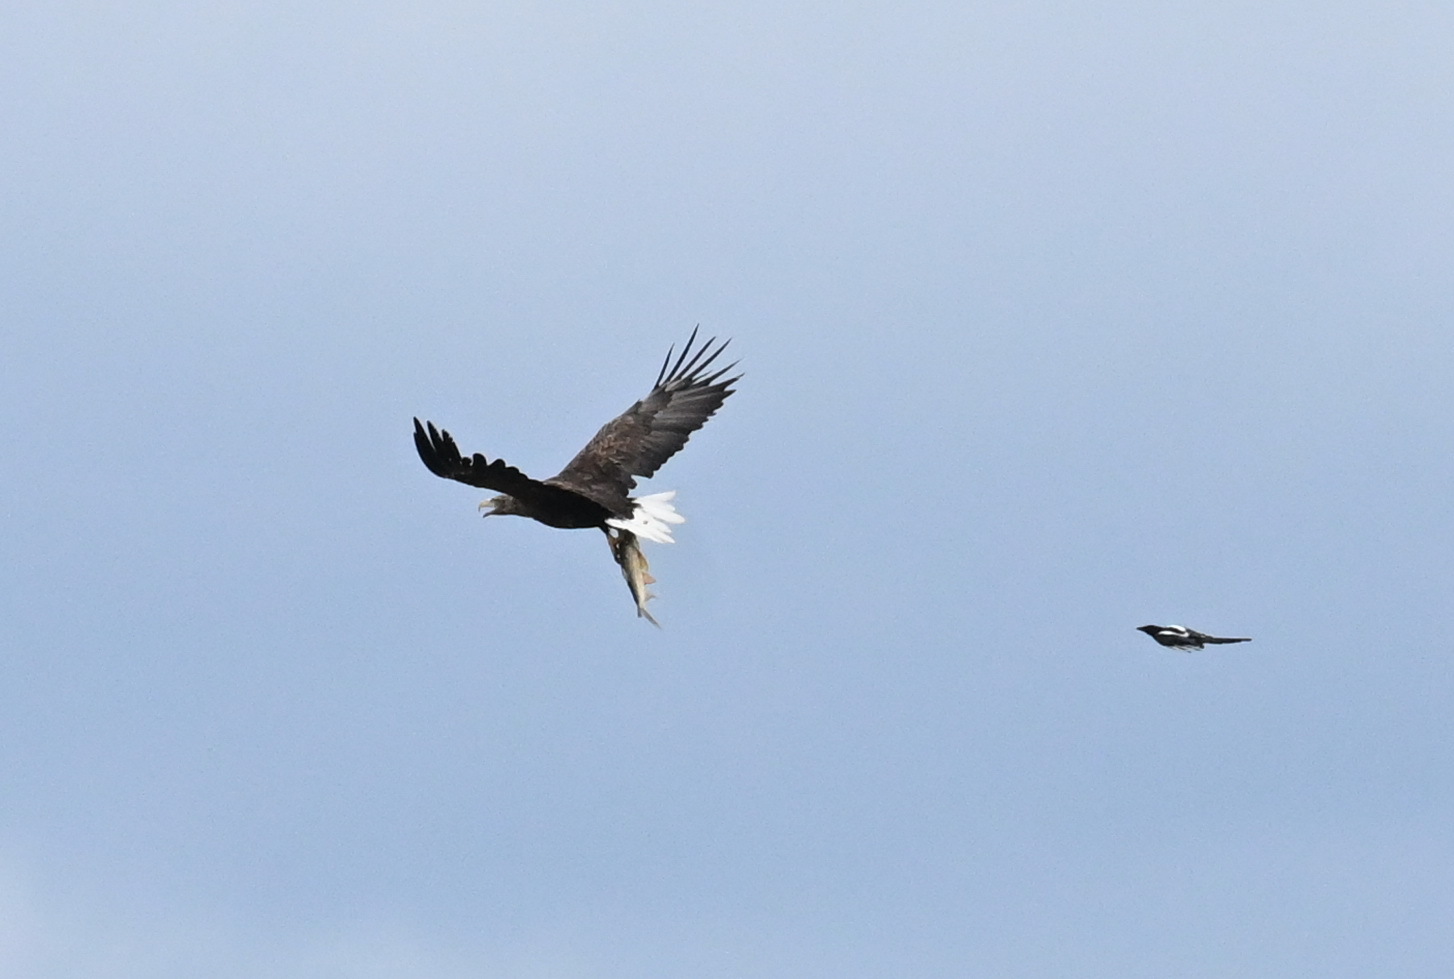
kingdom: Animalia
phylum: Chordata
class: Aves
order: Accipitriformes
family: Accipitridae
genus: Haliaeetus
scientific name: Haliaeetus albicilla
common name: White-tailed eagle
